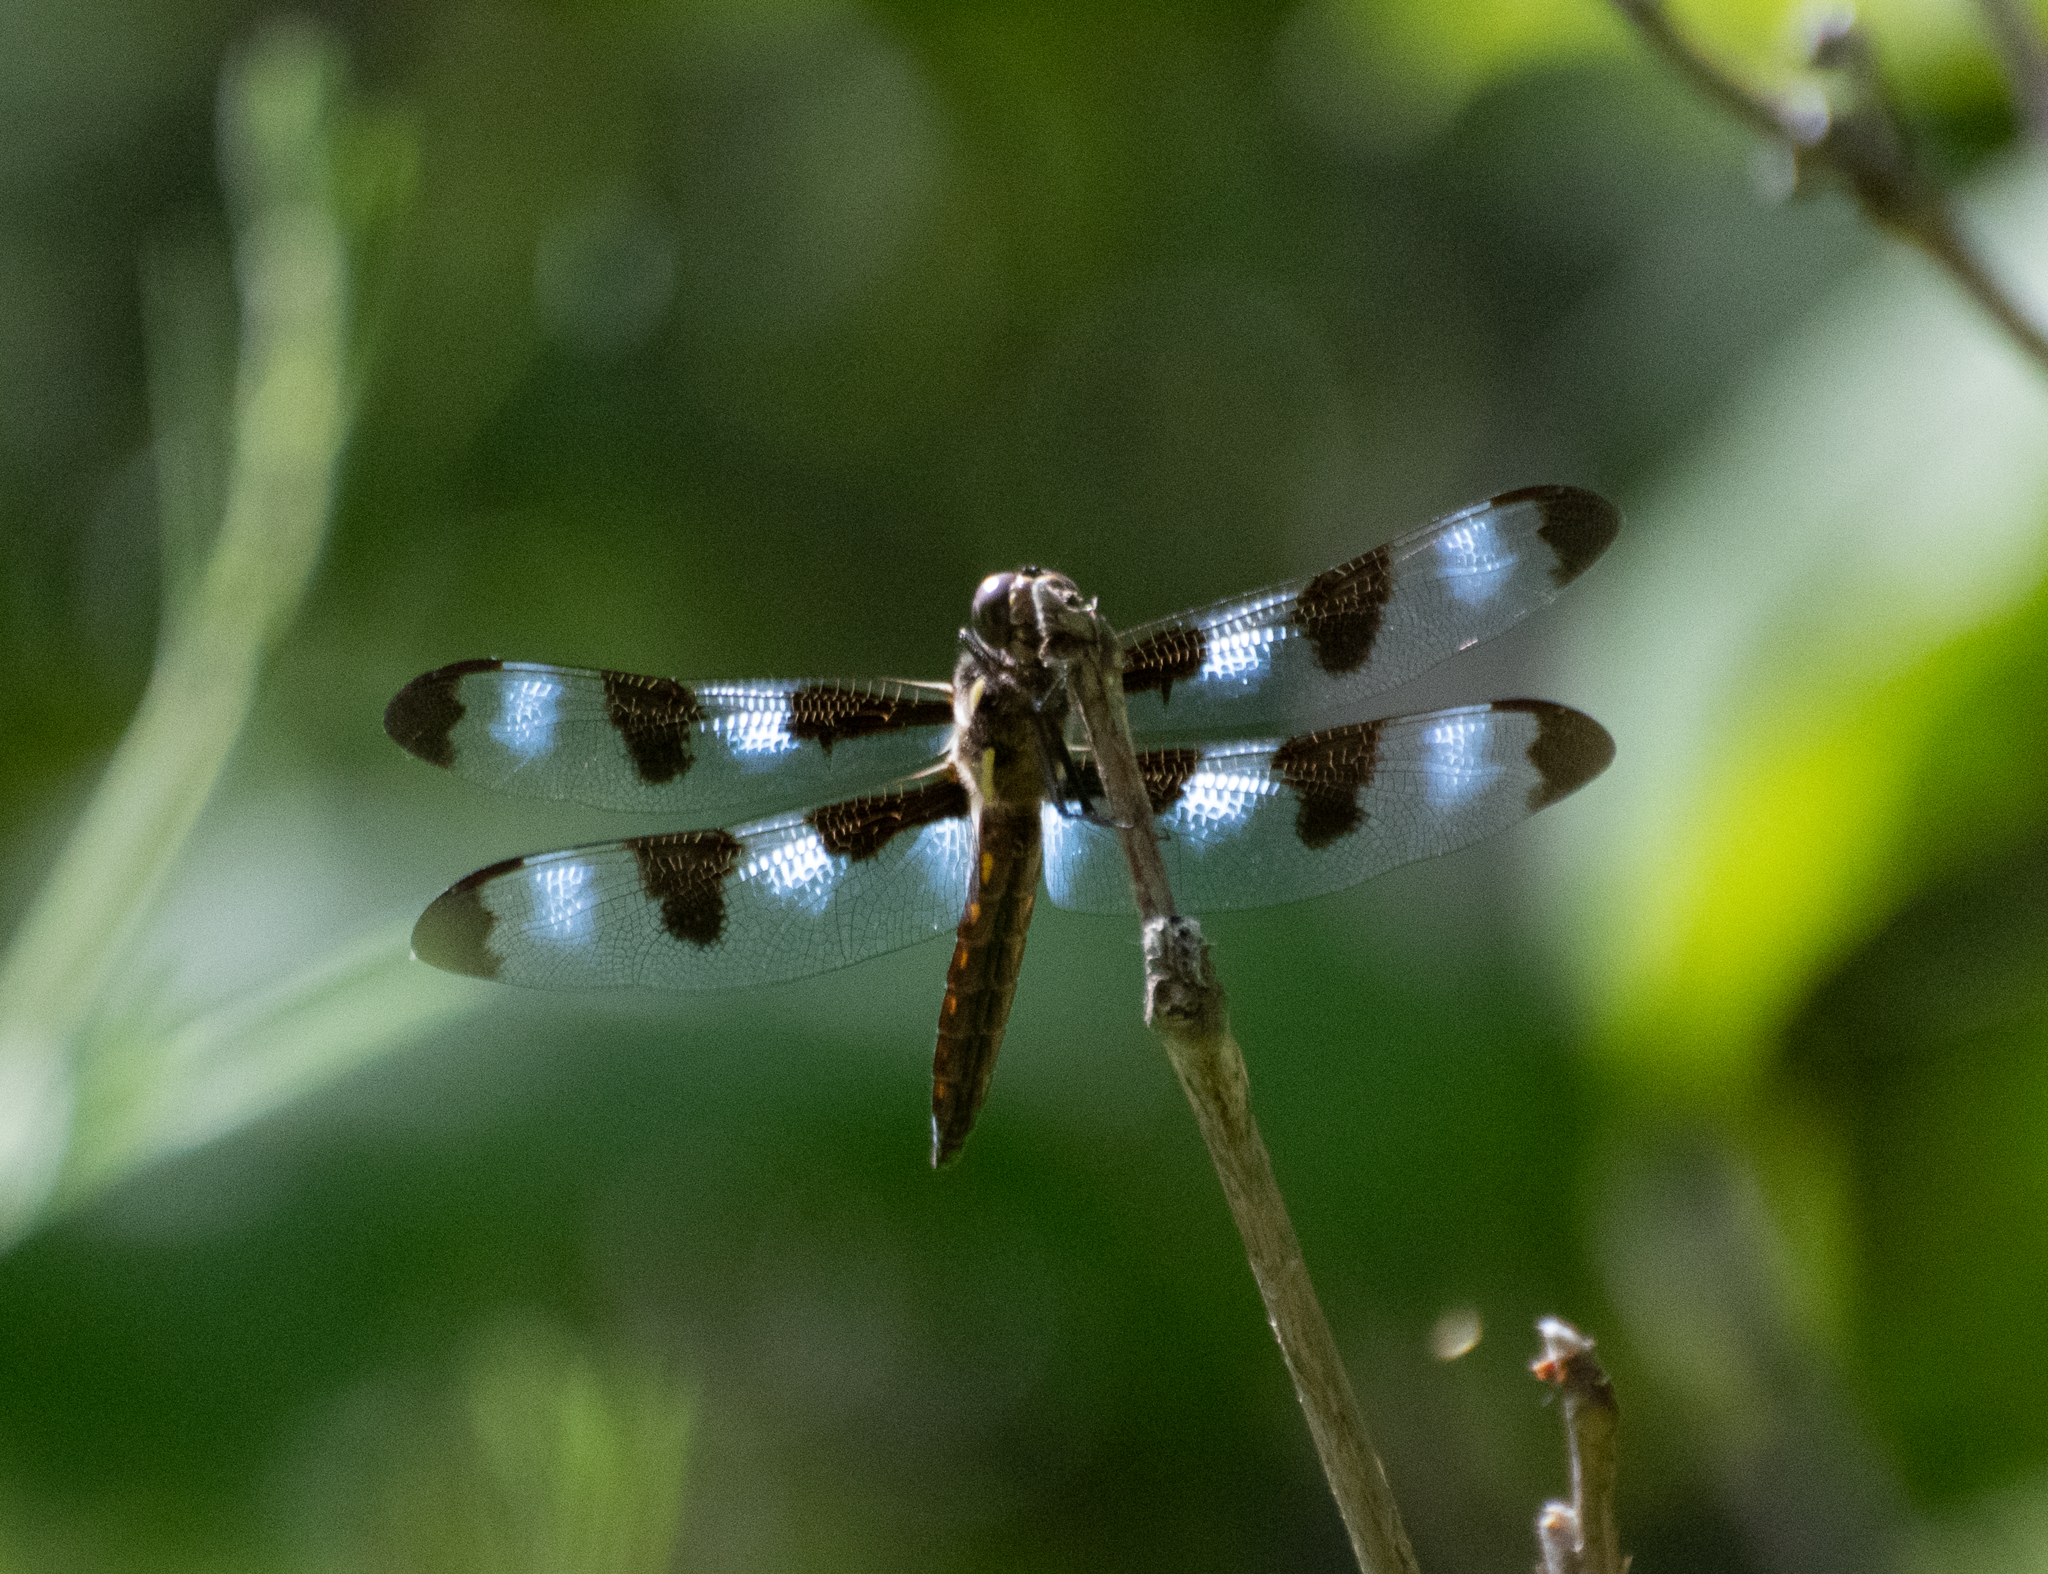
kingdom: Animalia
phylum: Arthropoda
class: Insecta
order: Odonata
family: Libellulidae
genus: Libellula
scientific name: Libellula pulchella
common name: Twelve-spotted skimmer
